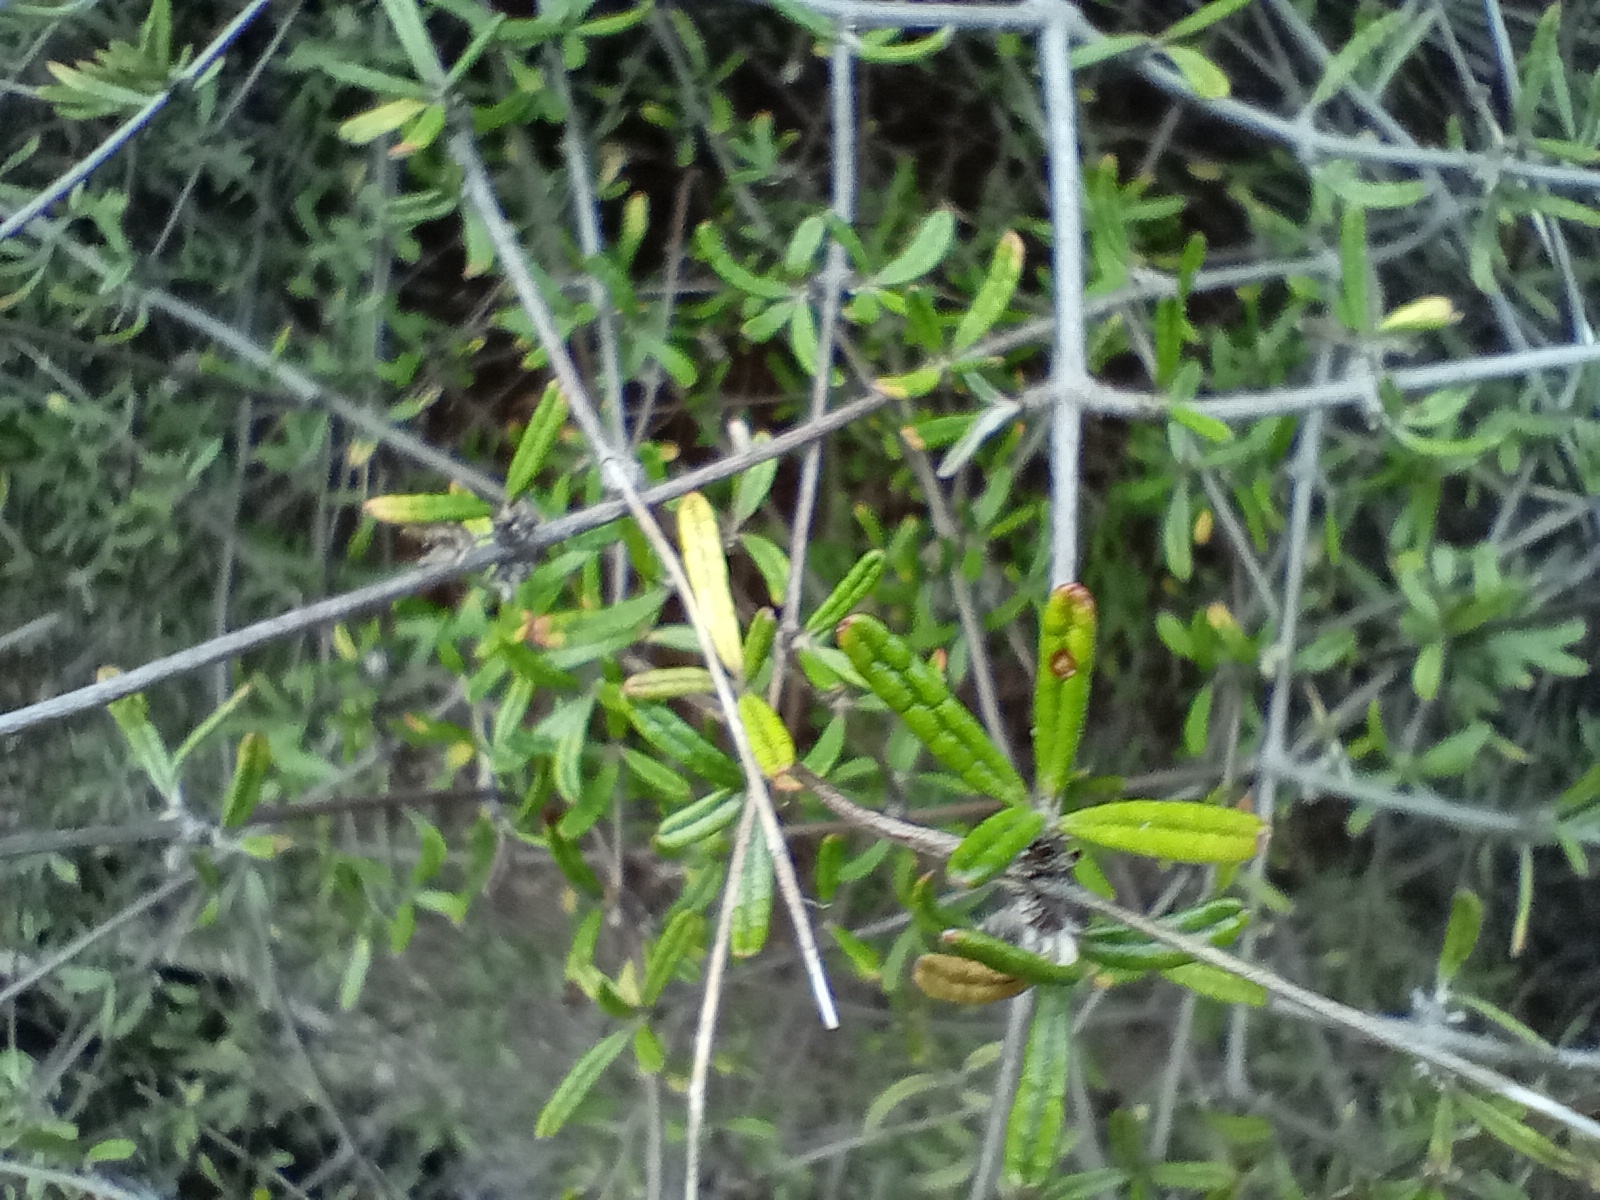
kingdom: Plantae
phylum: Tracheophyta
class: Magnoliopsida
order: Asterales
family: Asteraceae
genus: Olearia
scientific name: Olearia bullata
